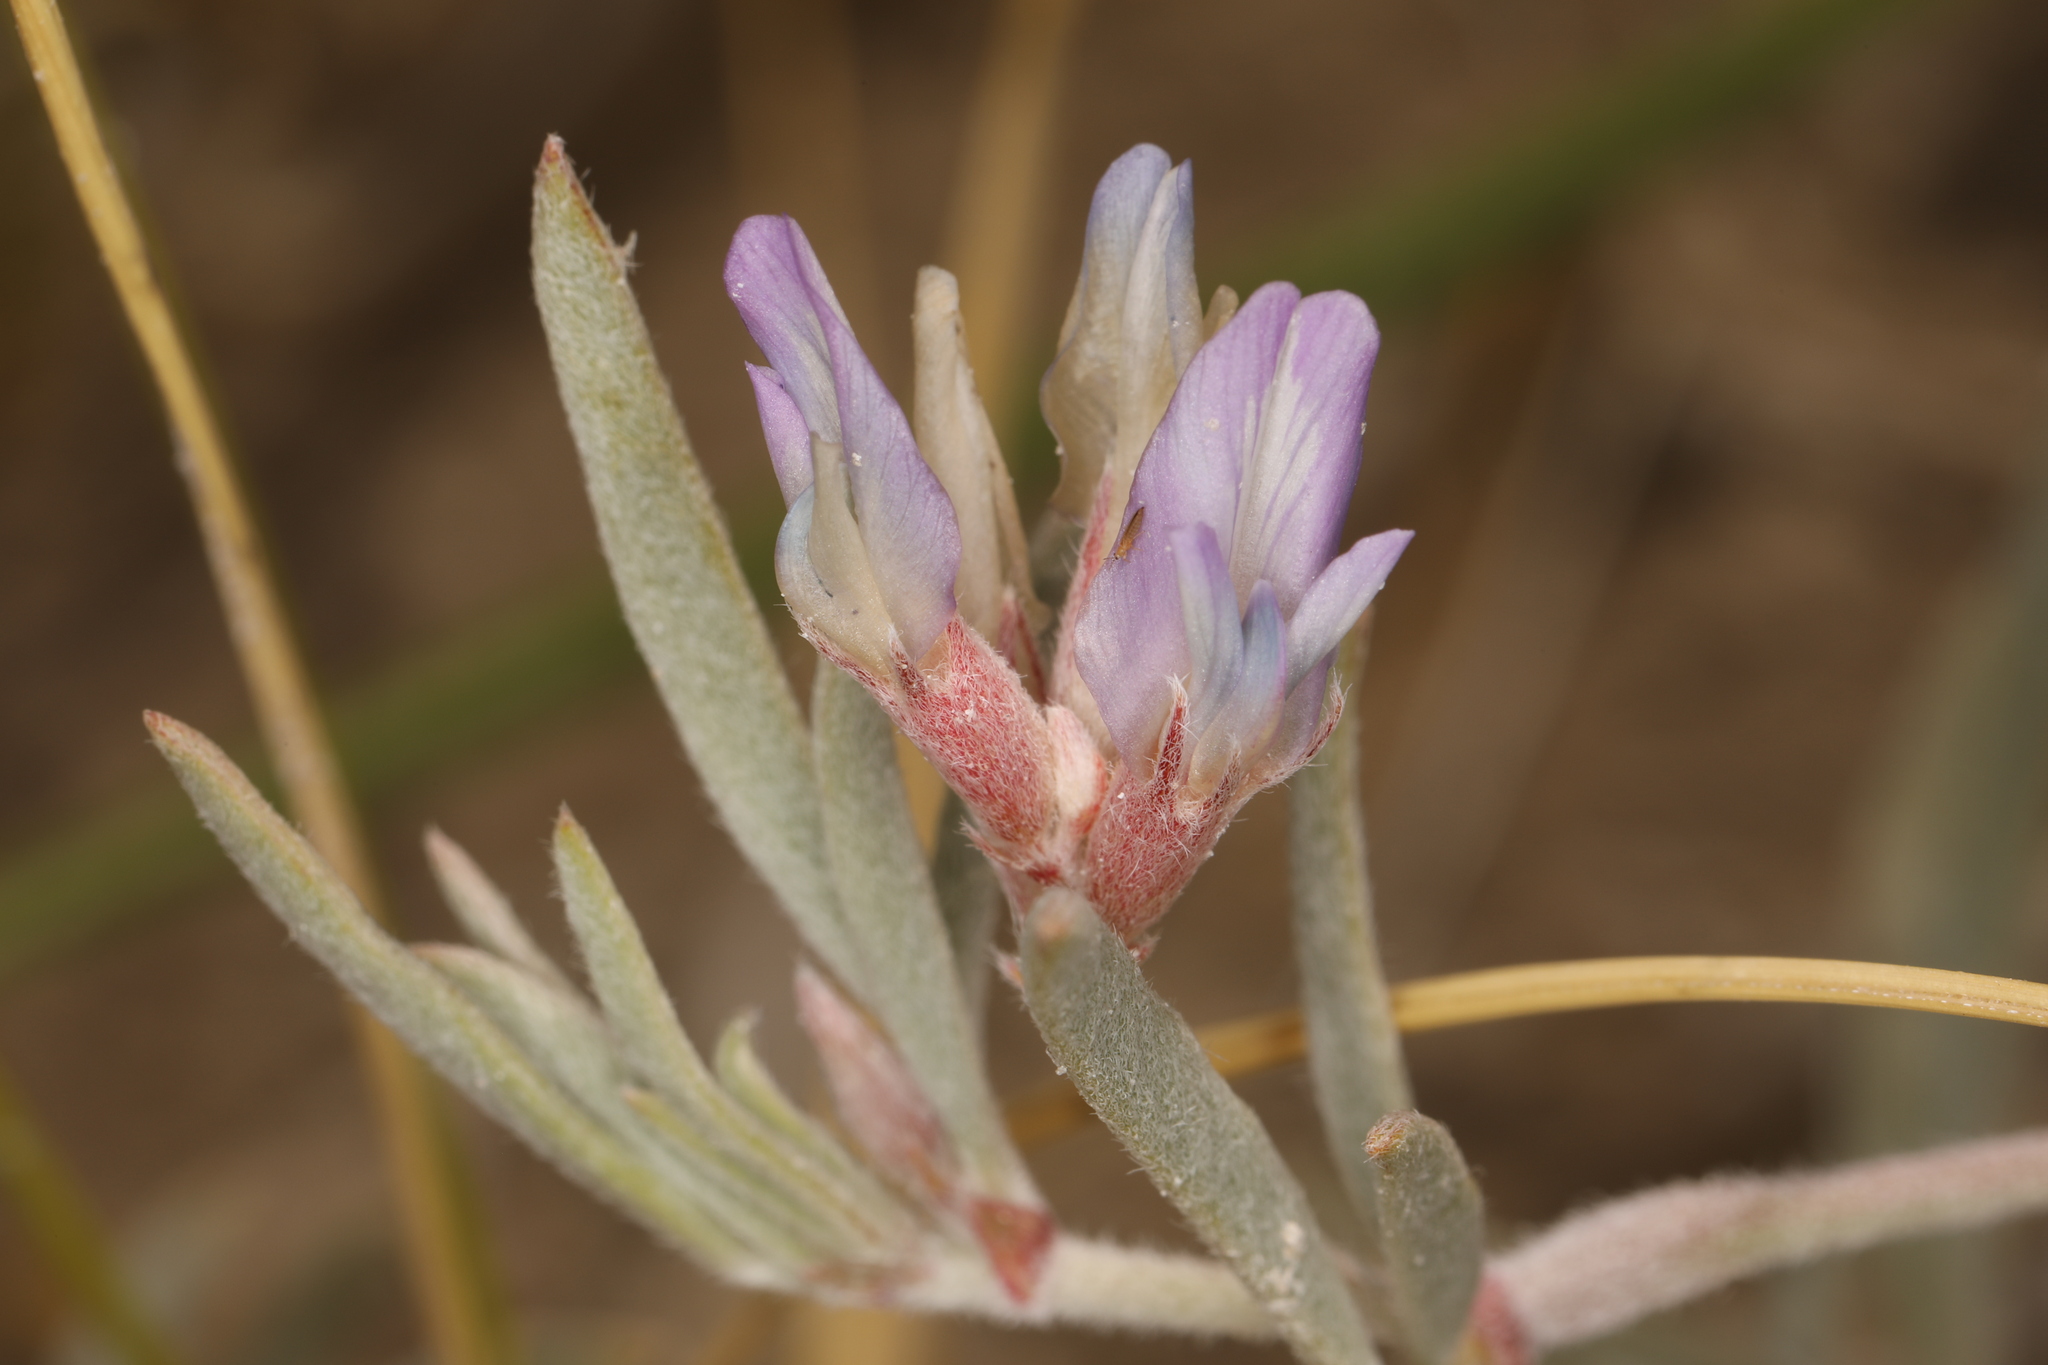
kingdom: Plantae
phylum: Tracheophyta
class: Magnoliopsida
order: Fabales
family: Fabaceae
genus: Astragalus
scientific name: Astragalus lentiginosus
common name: Freckled milkvetch
